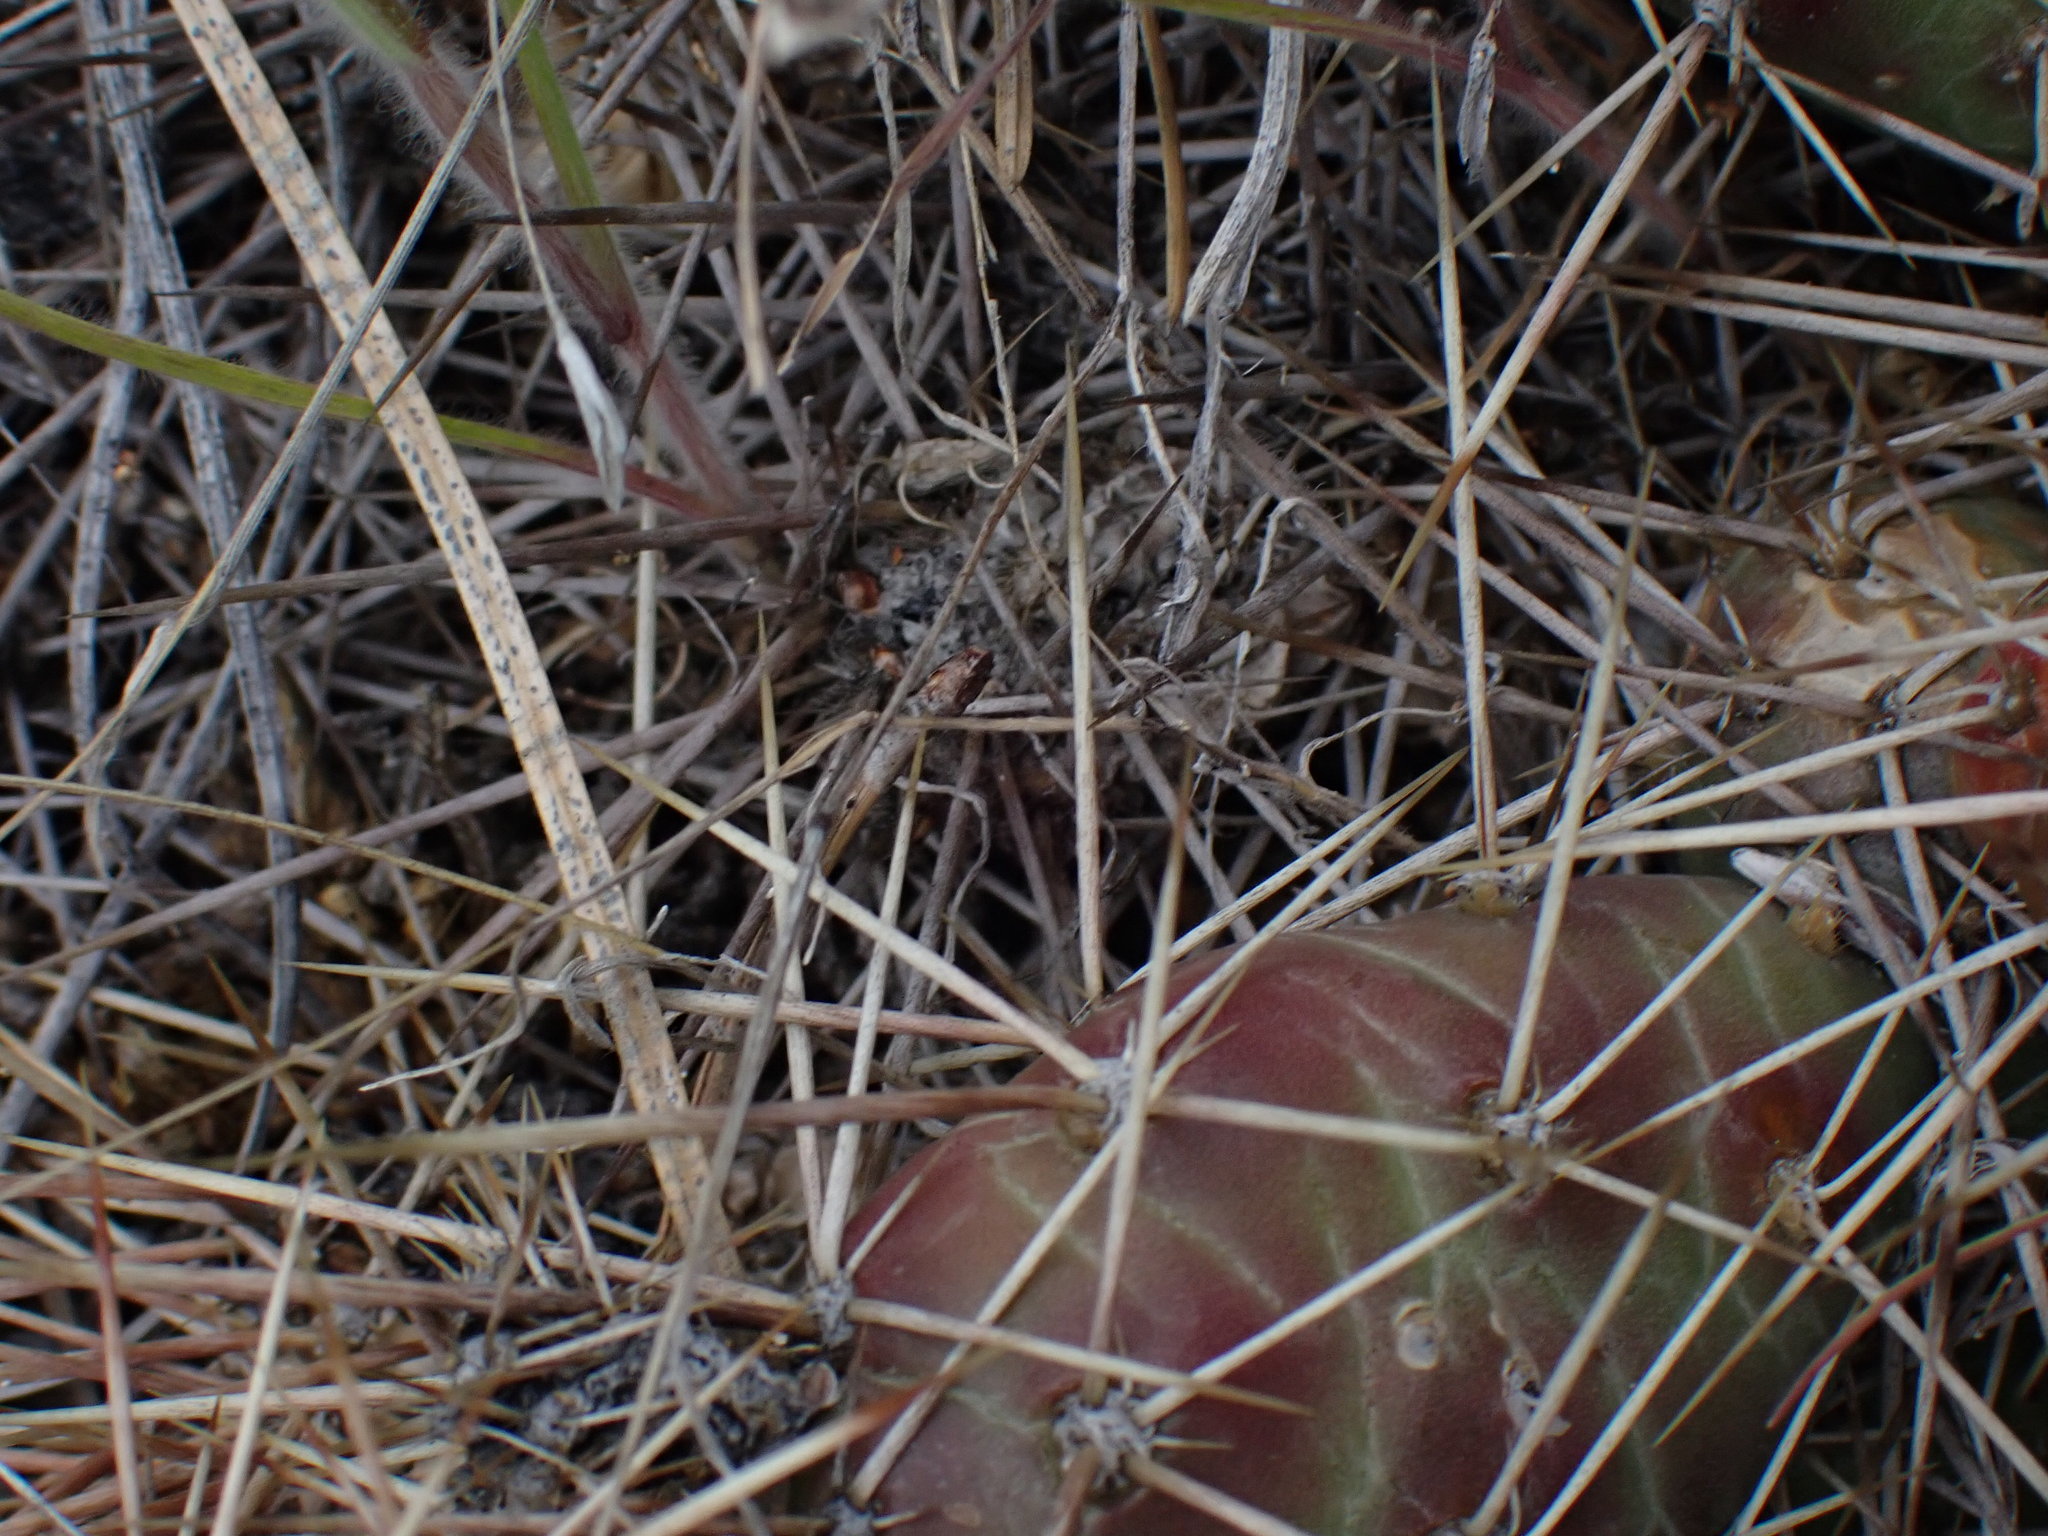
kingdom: Plantae
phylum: Tracheophyta
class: Magnoliopsida
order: Caryophyllales
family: Cactaceae
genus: Opuntia
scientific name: Opuntia fragilis
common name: Brittle cactus
